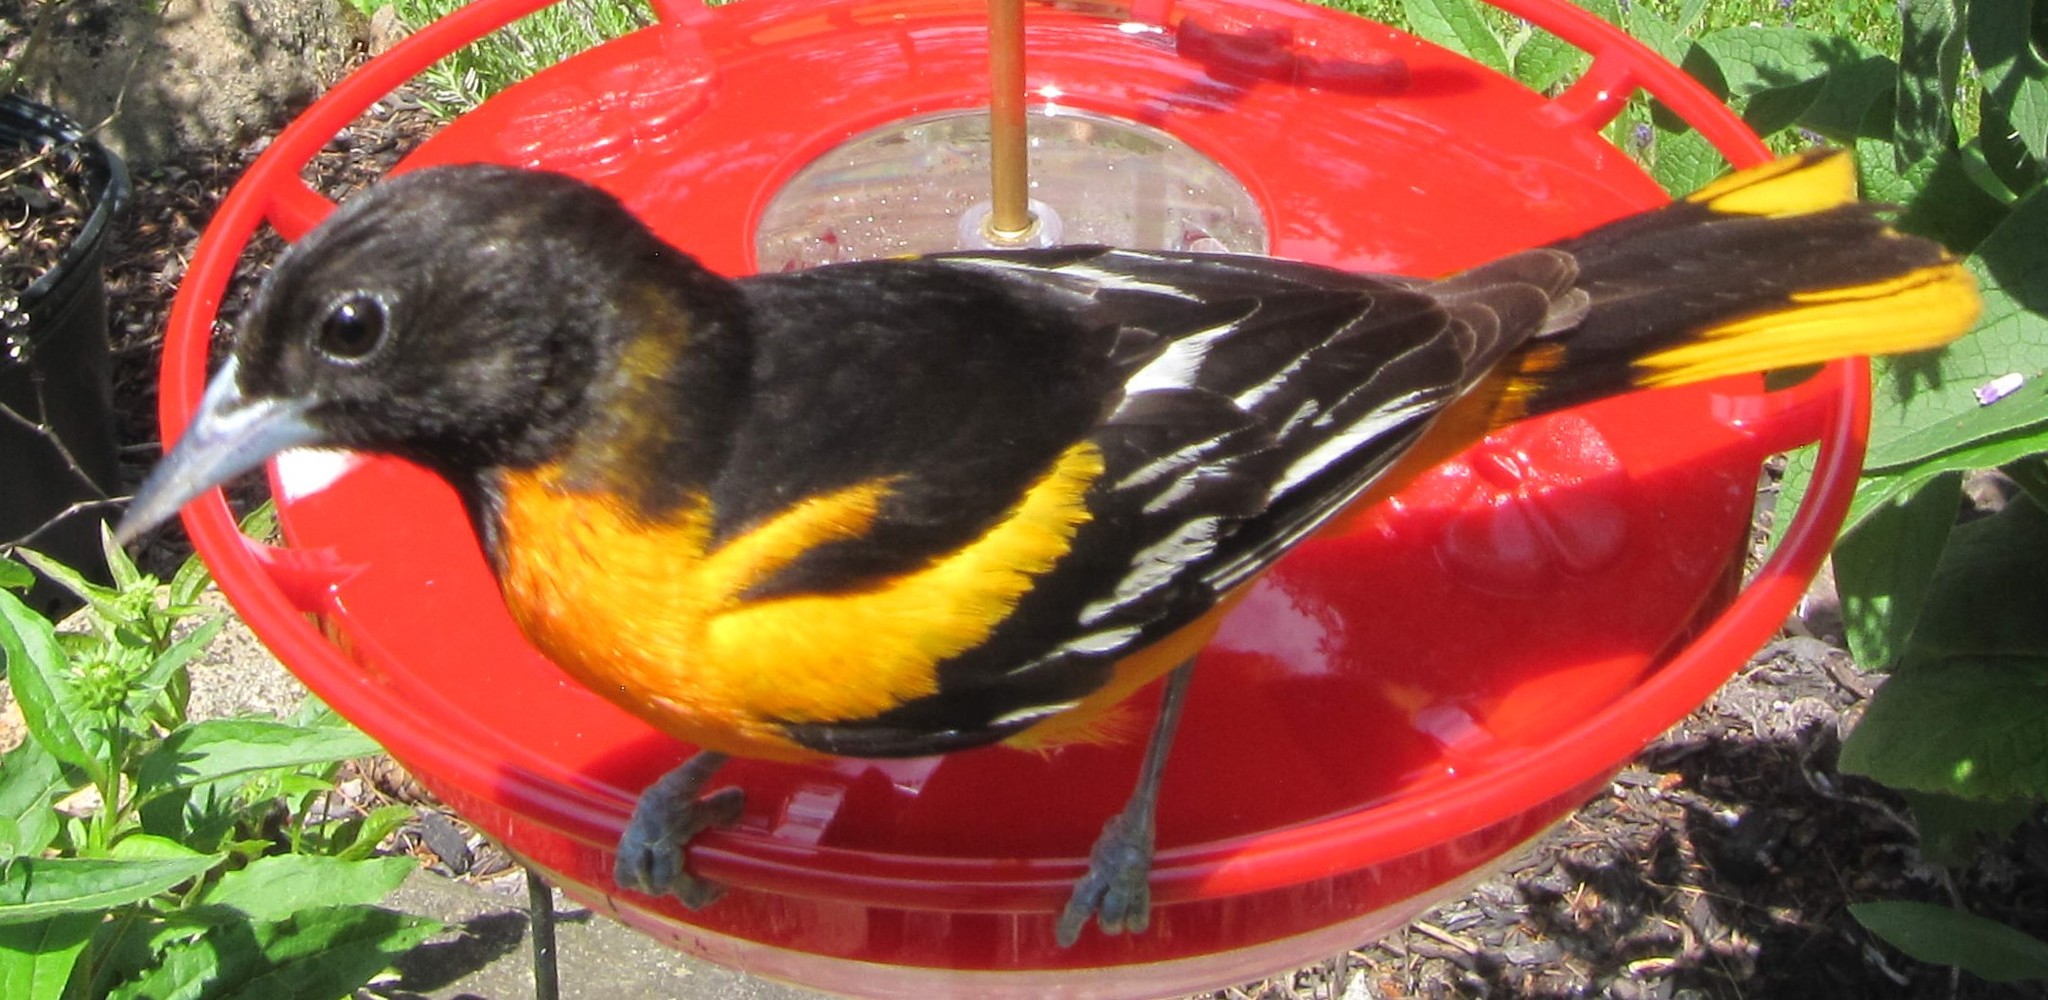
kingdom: Animalia
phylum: Chordata
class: Aves
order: Passeriformes
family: Icteridae
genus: Icterus
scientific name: Icterus galbula
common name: Baltimore oriole
